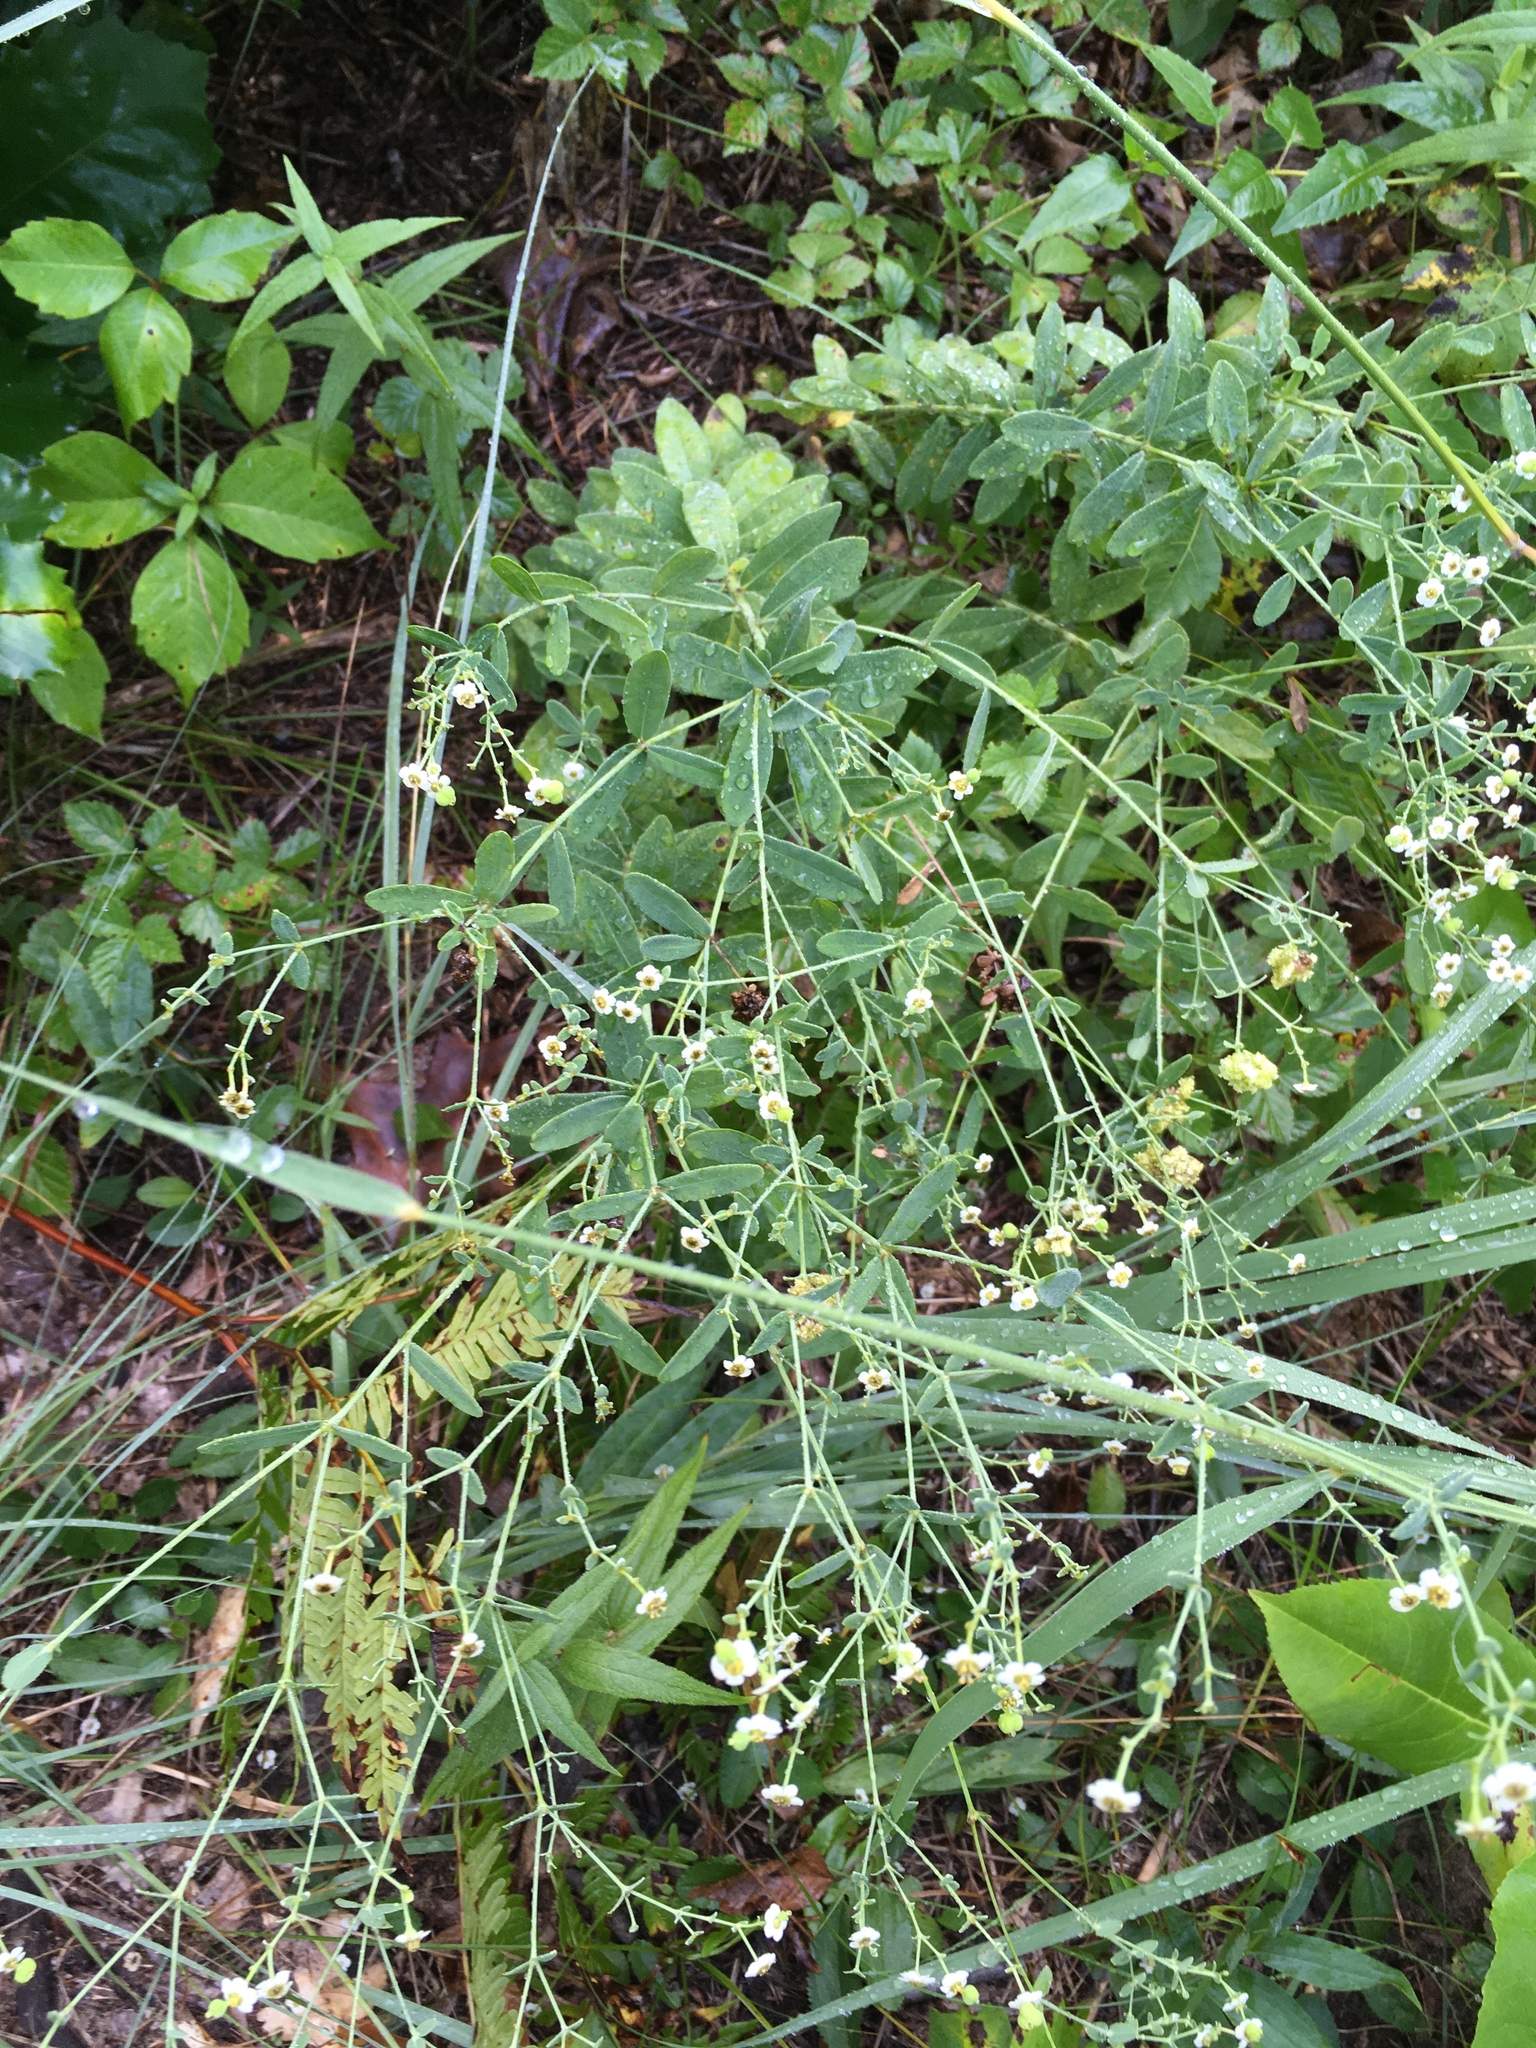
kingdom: Plantae
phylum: Tracheophyta
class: Magnoliopsida
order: Malpighiales
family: Euphorbiaceae
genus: Euphorbia
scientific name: Euphorbia corollata
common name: Flowering spurge
